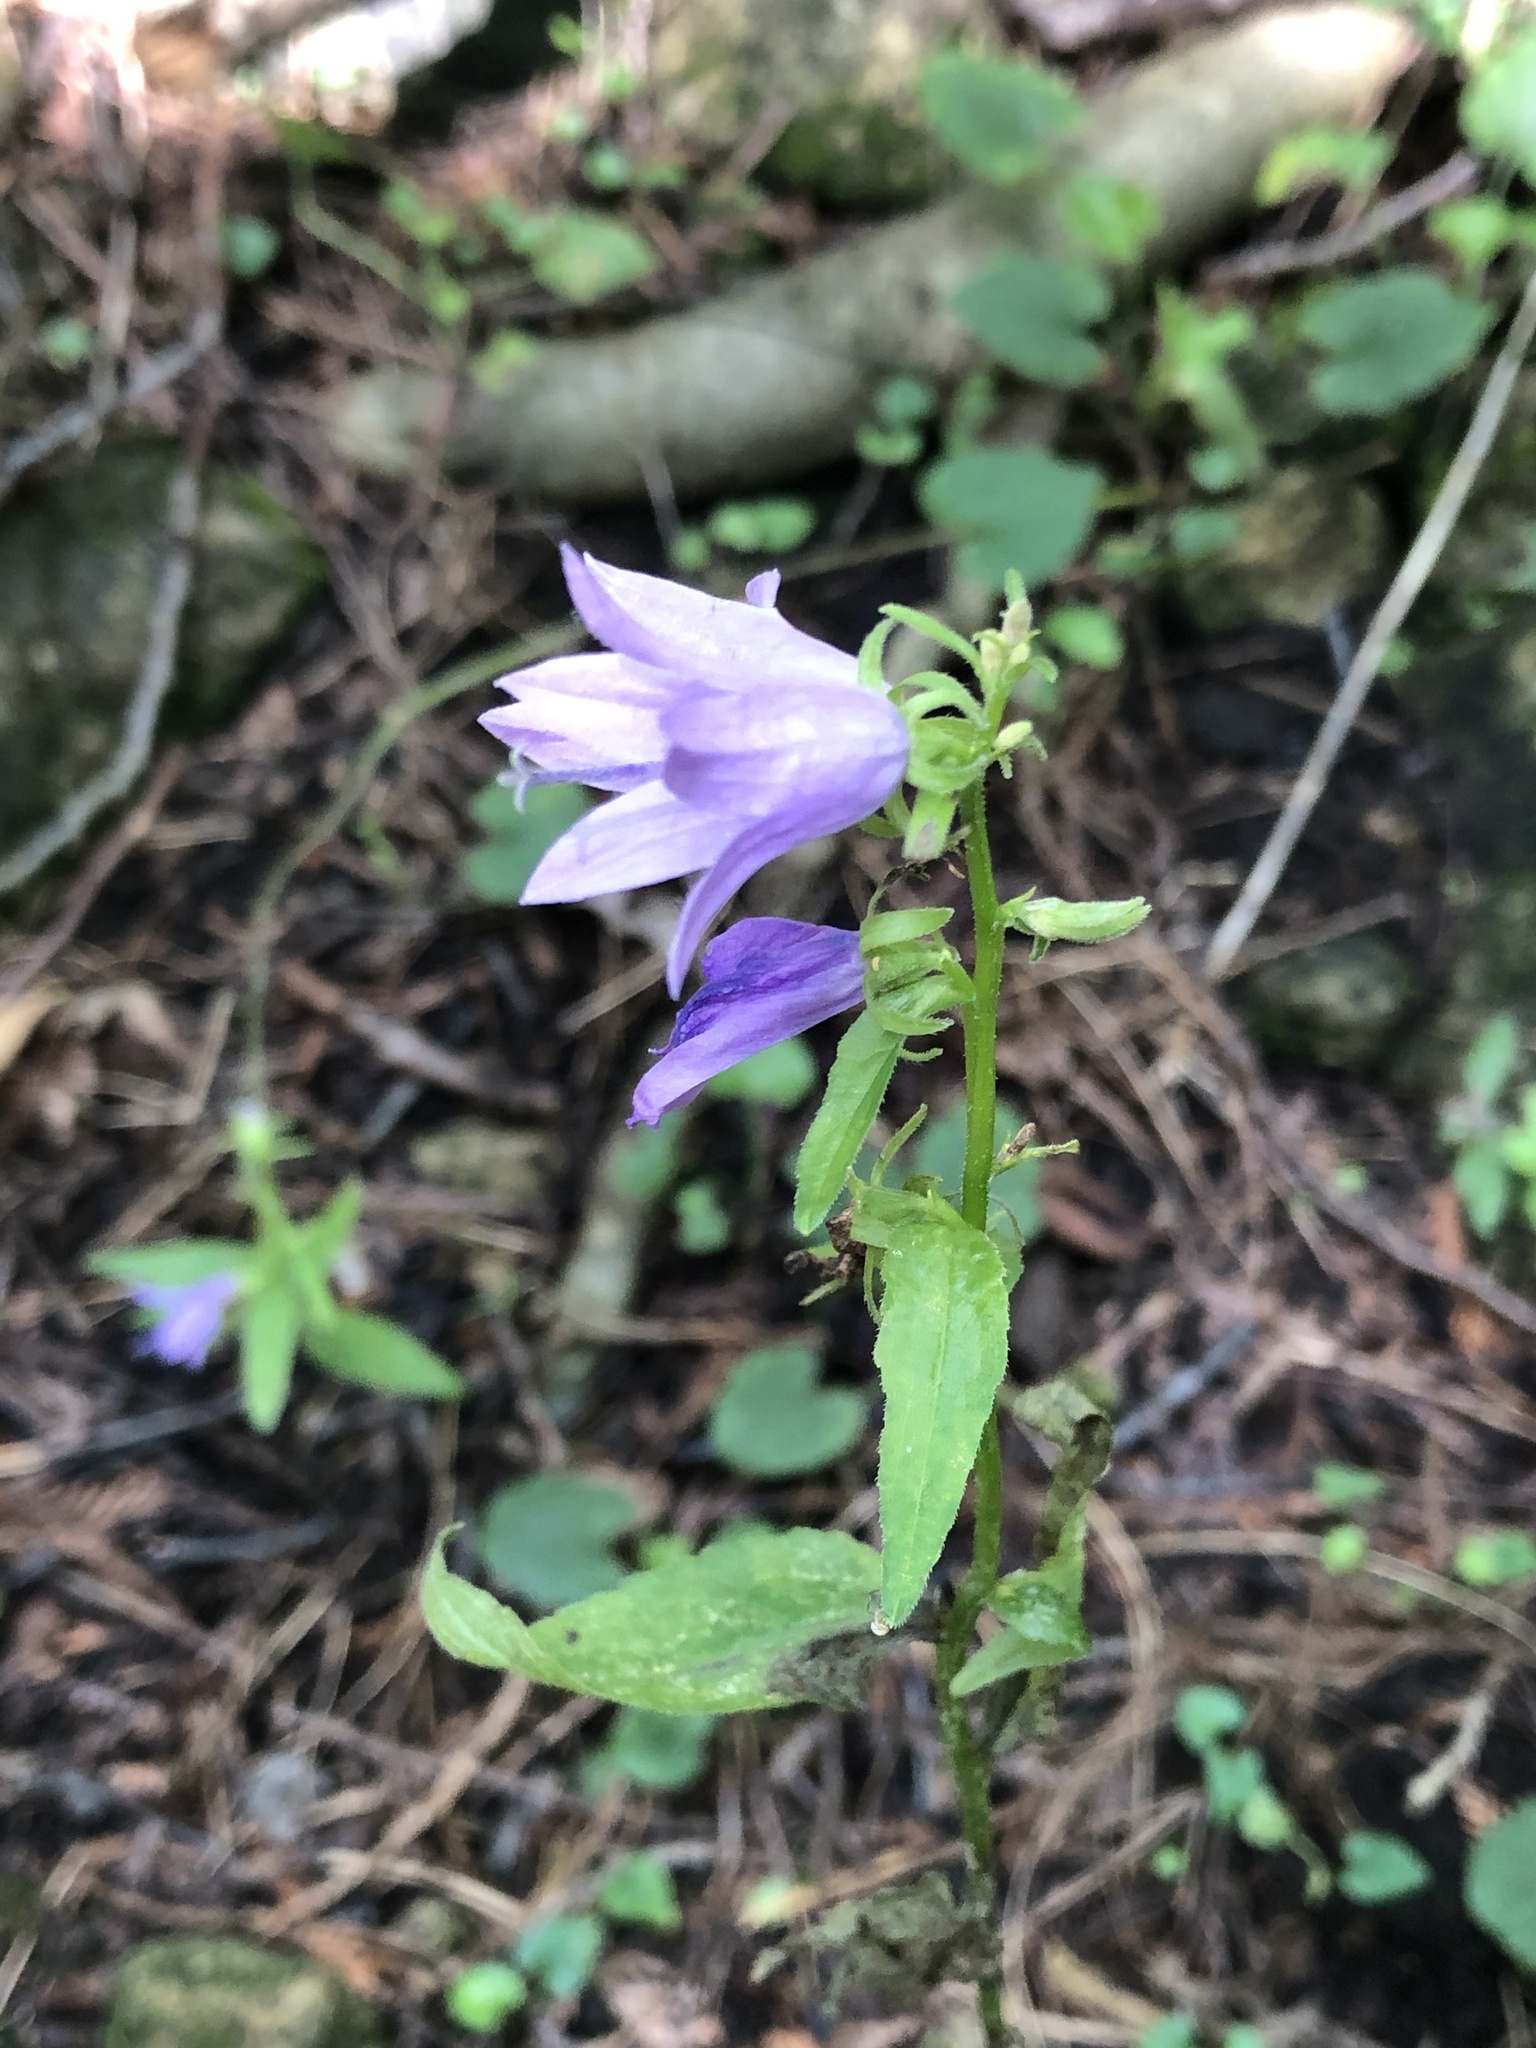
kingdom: Plantae
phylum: Tracheophyta
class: Magnoliopsida
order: Asterales
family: Campanulaceae
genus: Campanula
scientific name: Campanula rapunculoides
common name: Creeping bellflower
